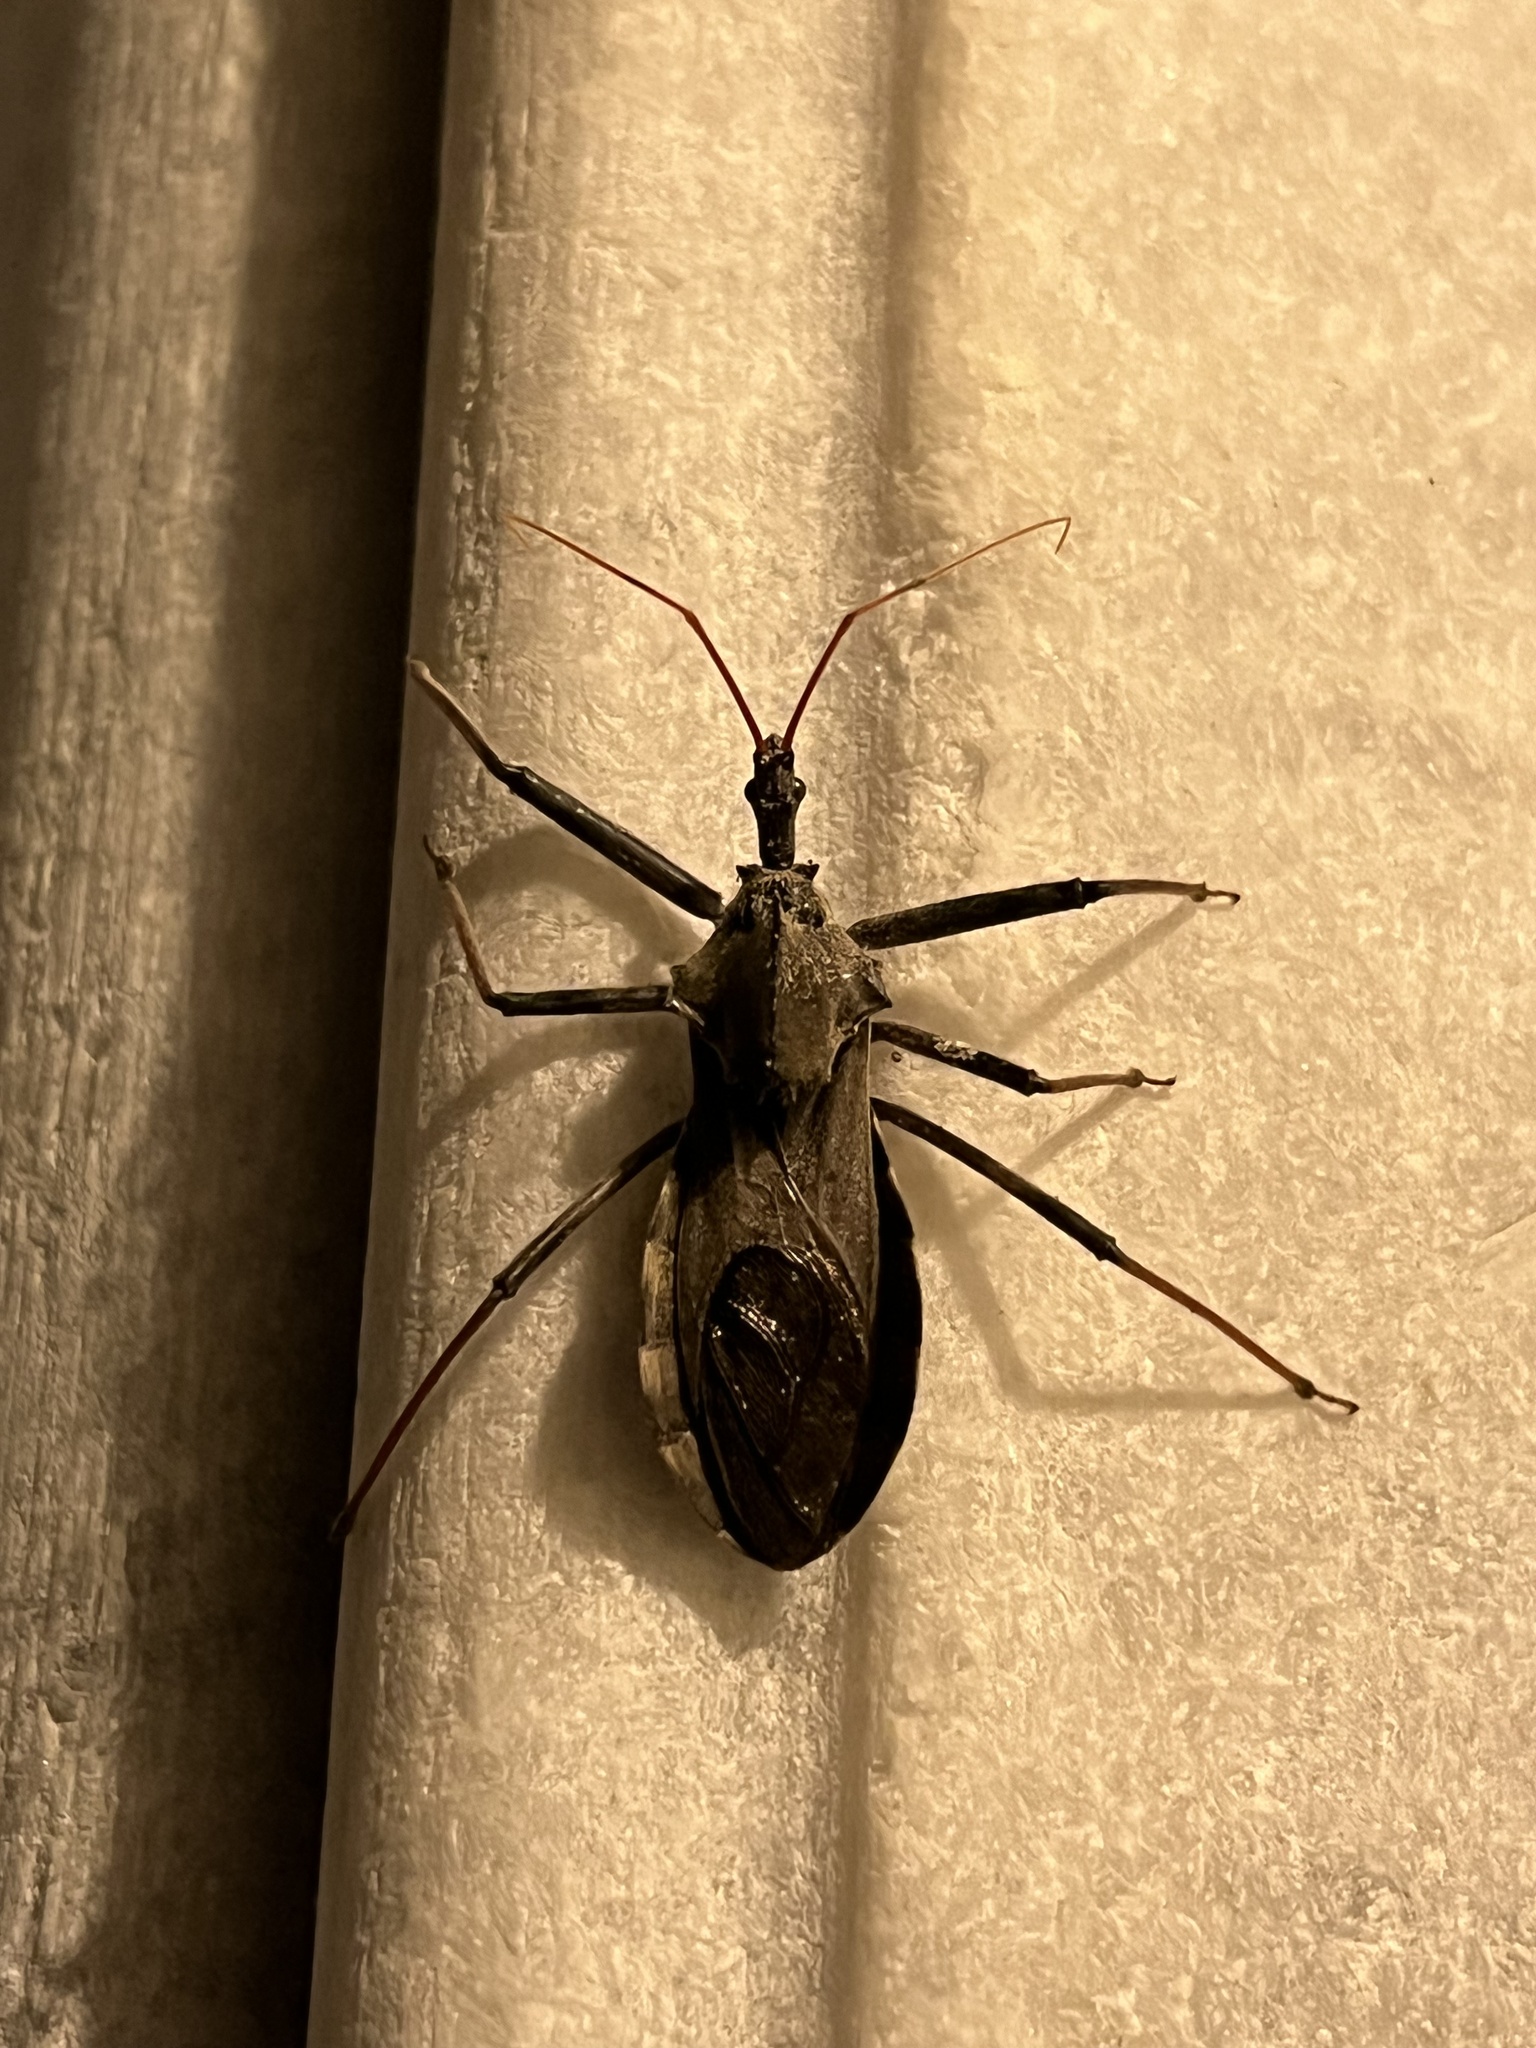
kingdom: Animalia
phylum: Arthropoda
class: Insecta
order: Hemiptera
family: Reduviidae
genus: Arilus
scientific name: Arilus cristatus
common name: North american wheel bug
